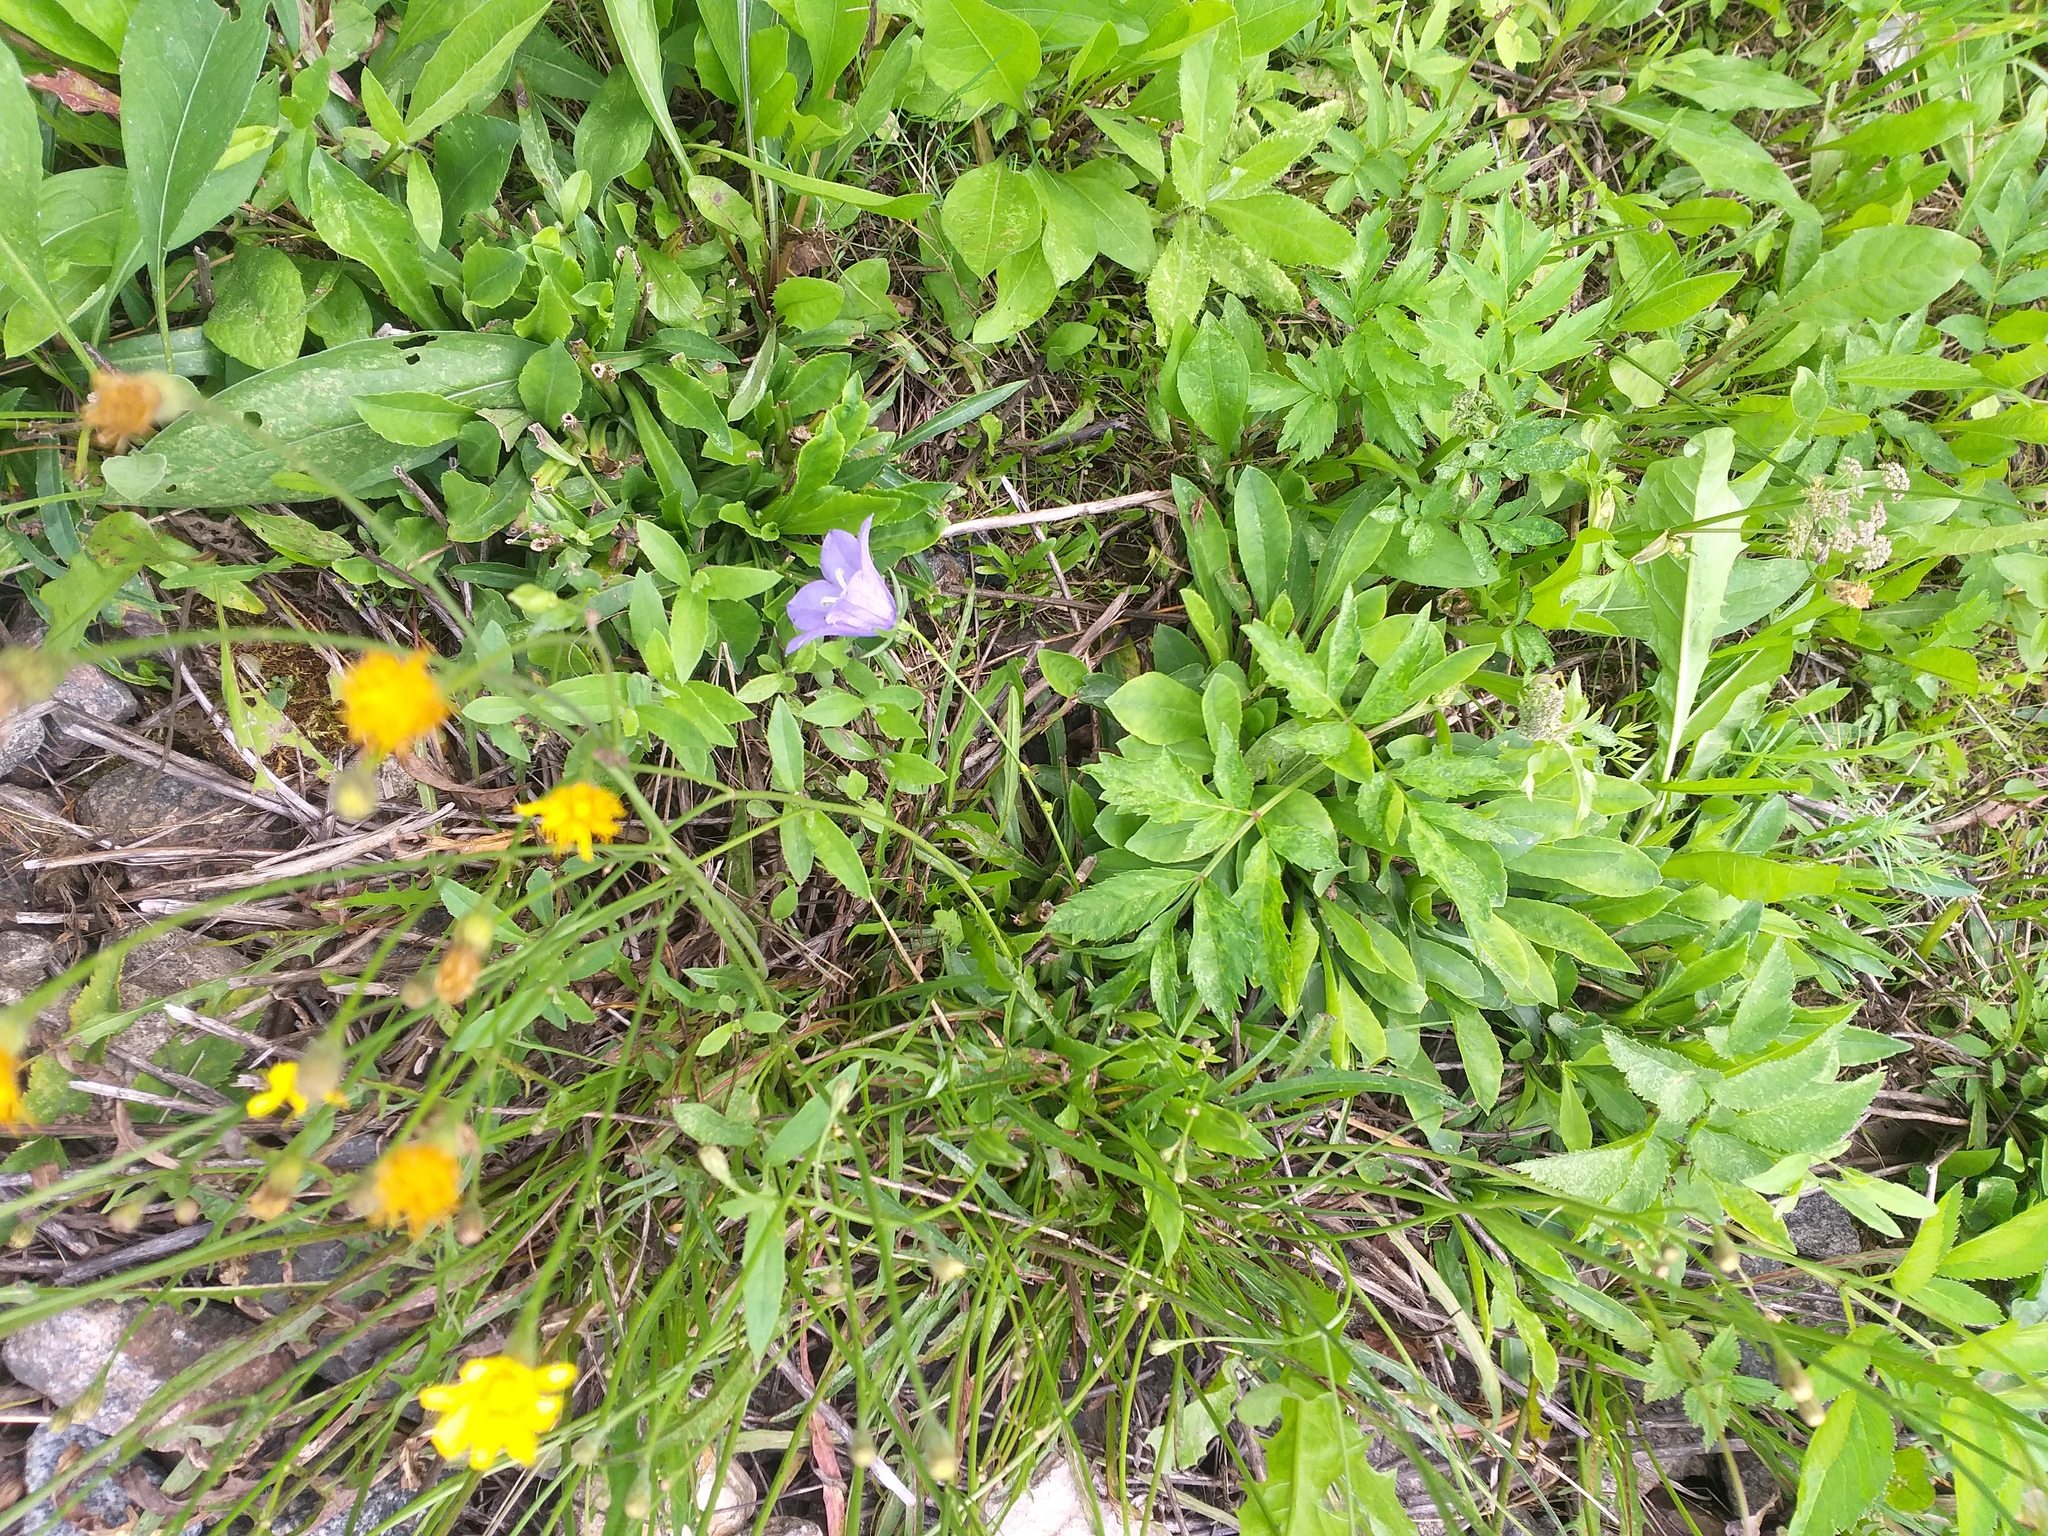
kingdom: Plantae
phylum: Tracheophyta
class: Magnoliopsida
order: Asterales
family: Campanulaceae
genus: Campanula
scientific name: Campanula persicifolia
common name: Peach-leaved bellflower
